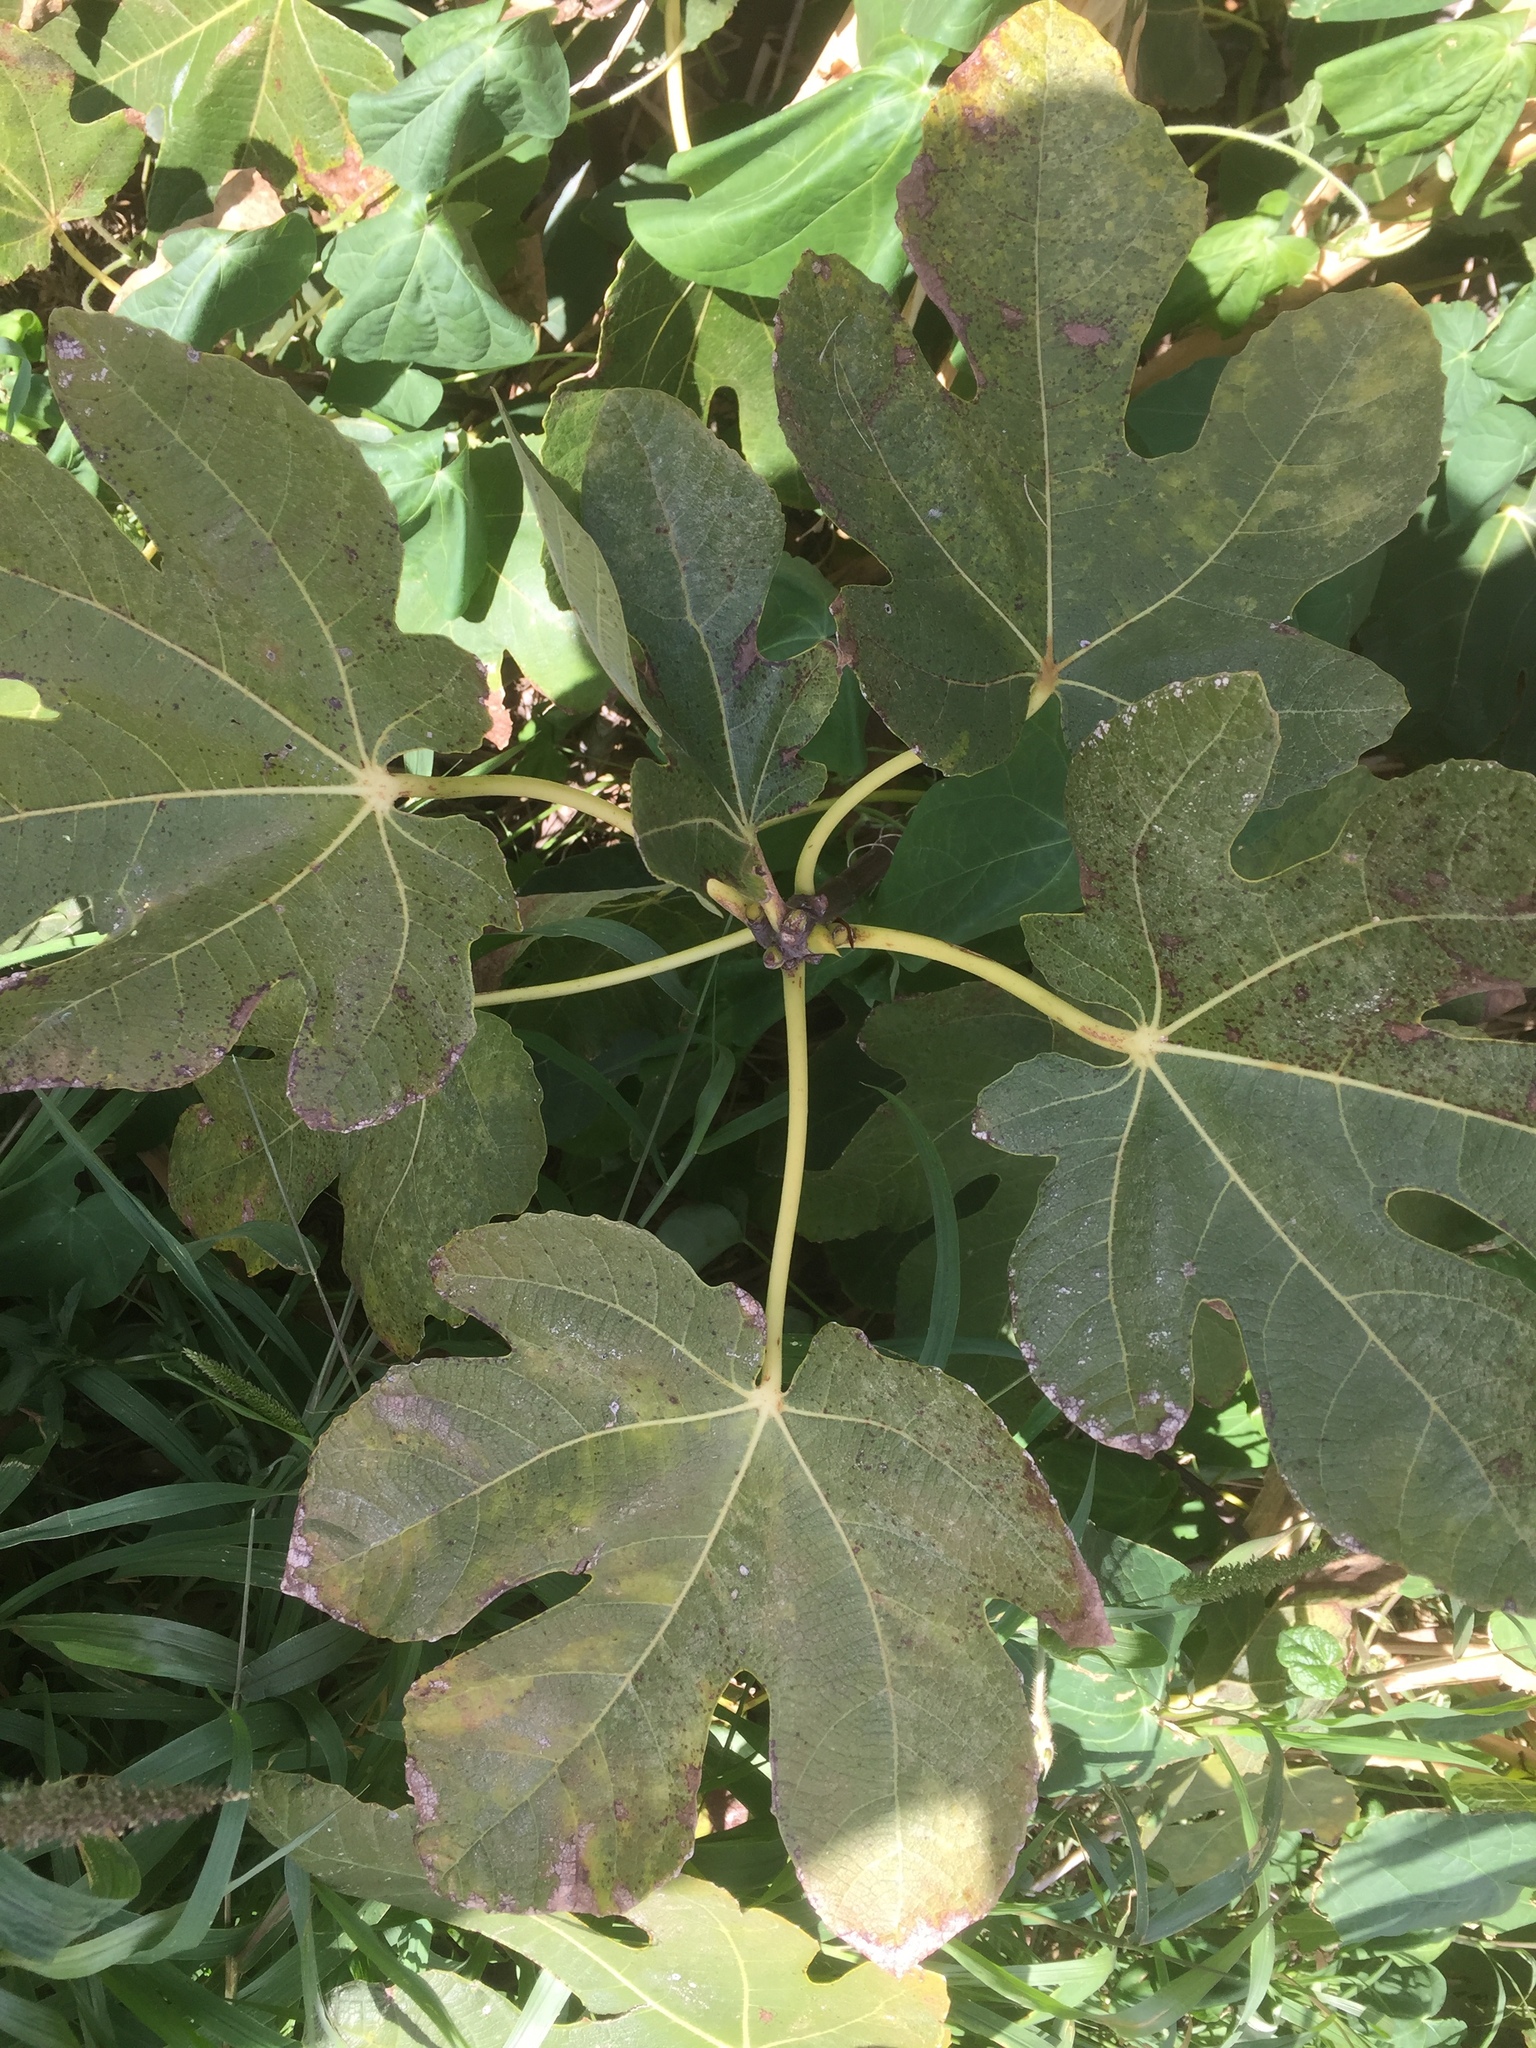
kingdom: Plantae
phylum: Tracheophyta
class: Magnoliopsida
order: Rosales
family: Moraceae
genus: Ficus
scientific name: Ficus carica
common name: Fig
